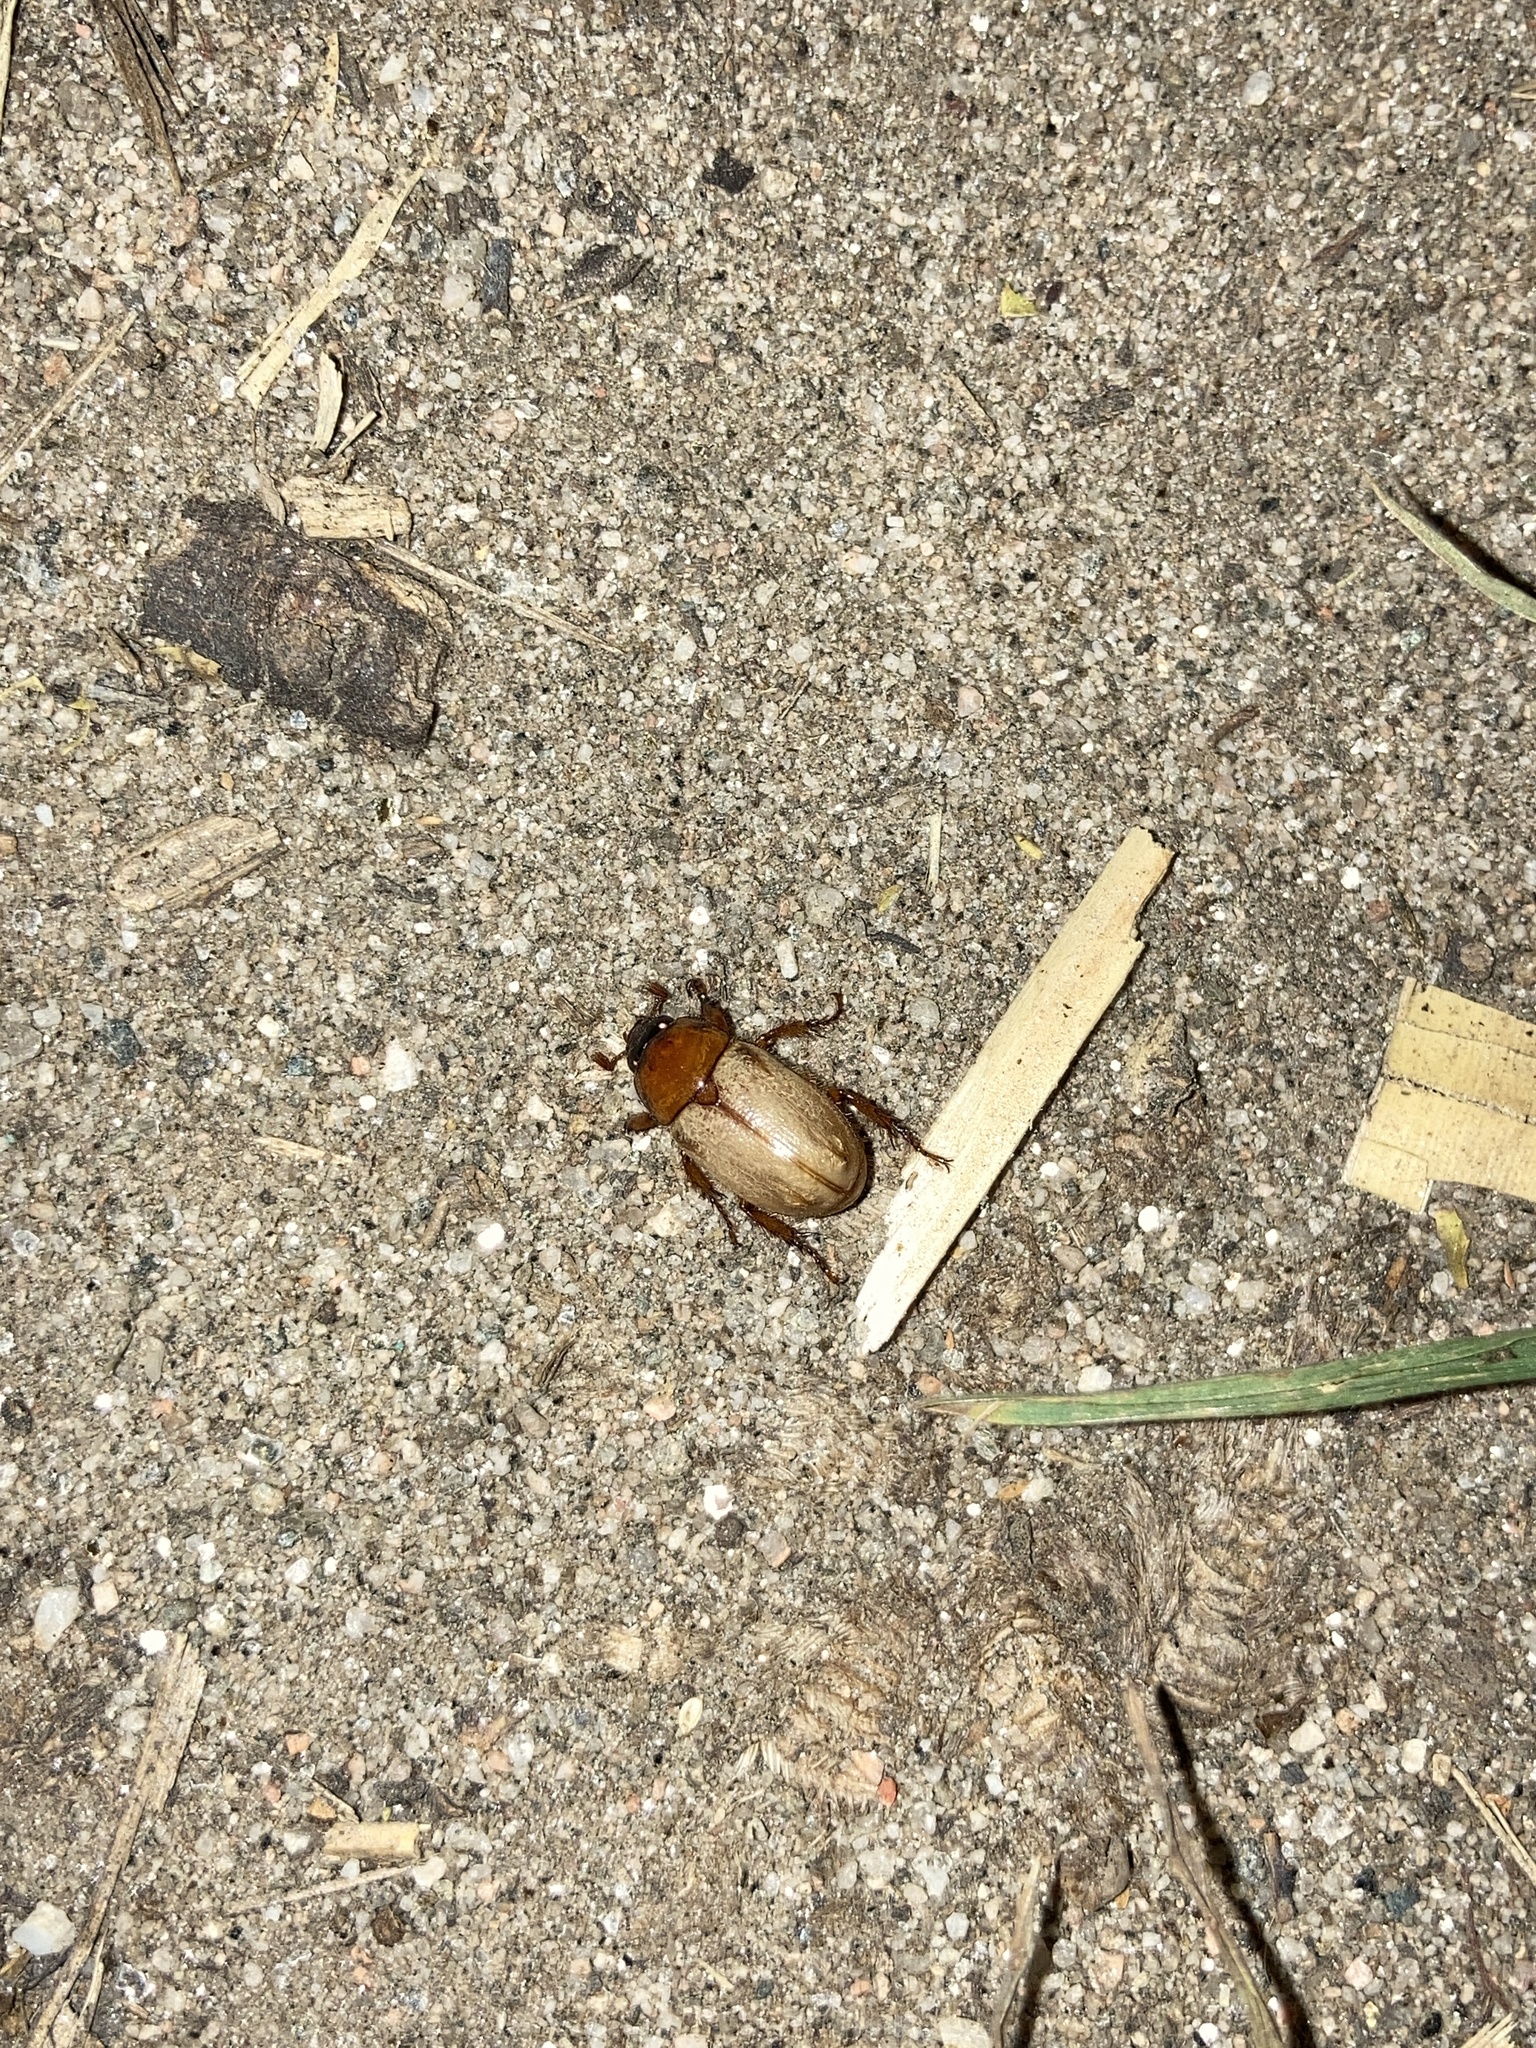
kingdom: Animalia
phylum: Arthropoda
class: Insecta
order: Coleoptera
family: Scarabaeidae
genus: Cyclocephala
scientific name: Cyclocephala melanocephala
